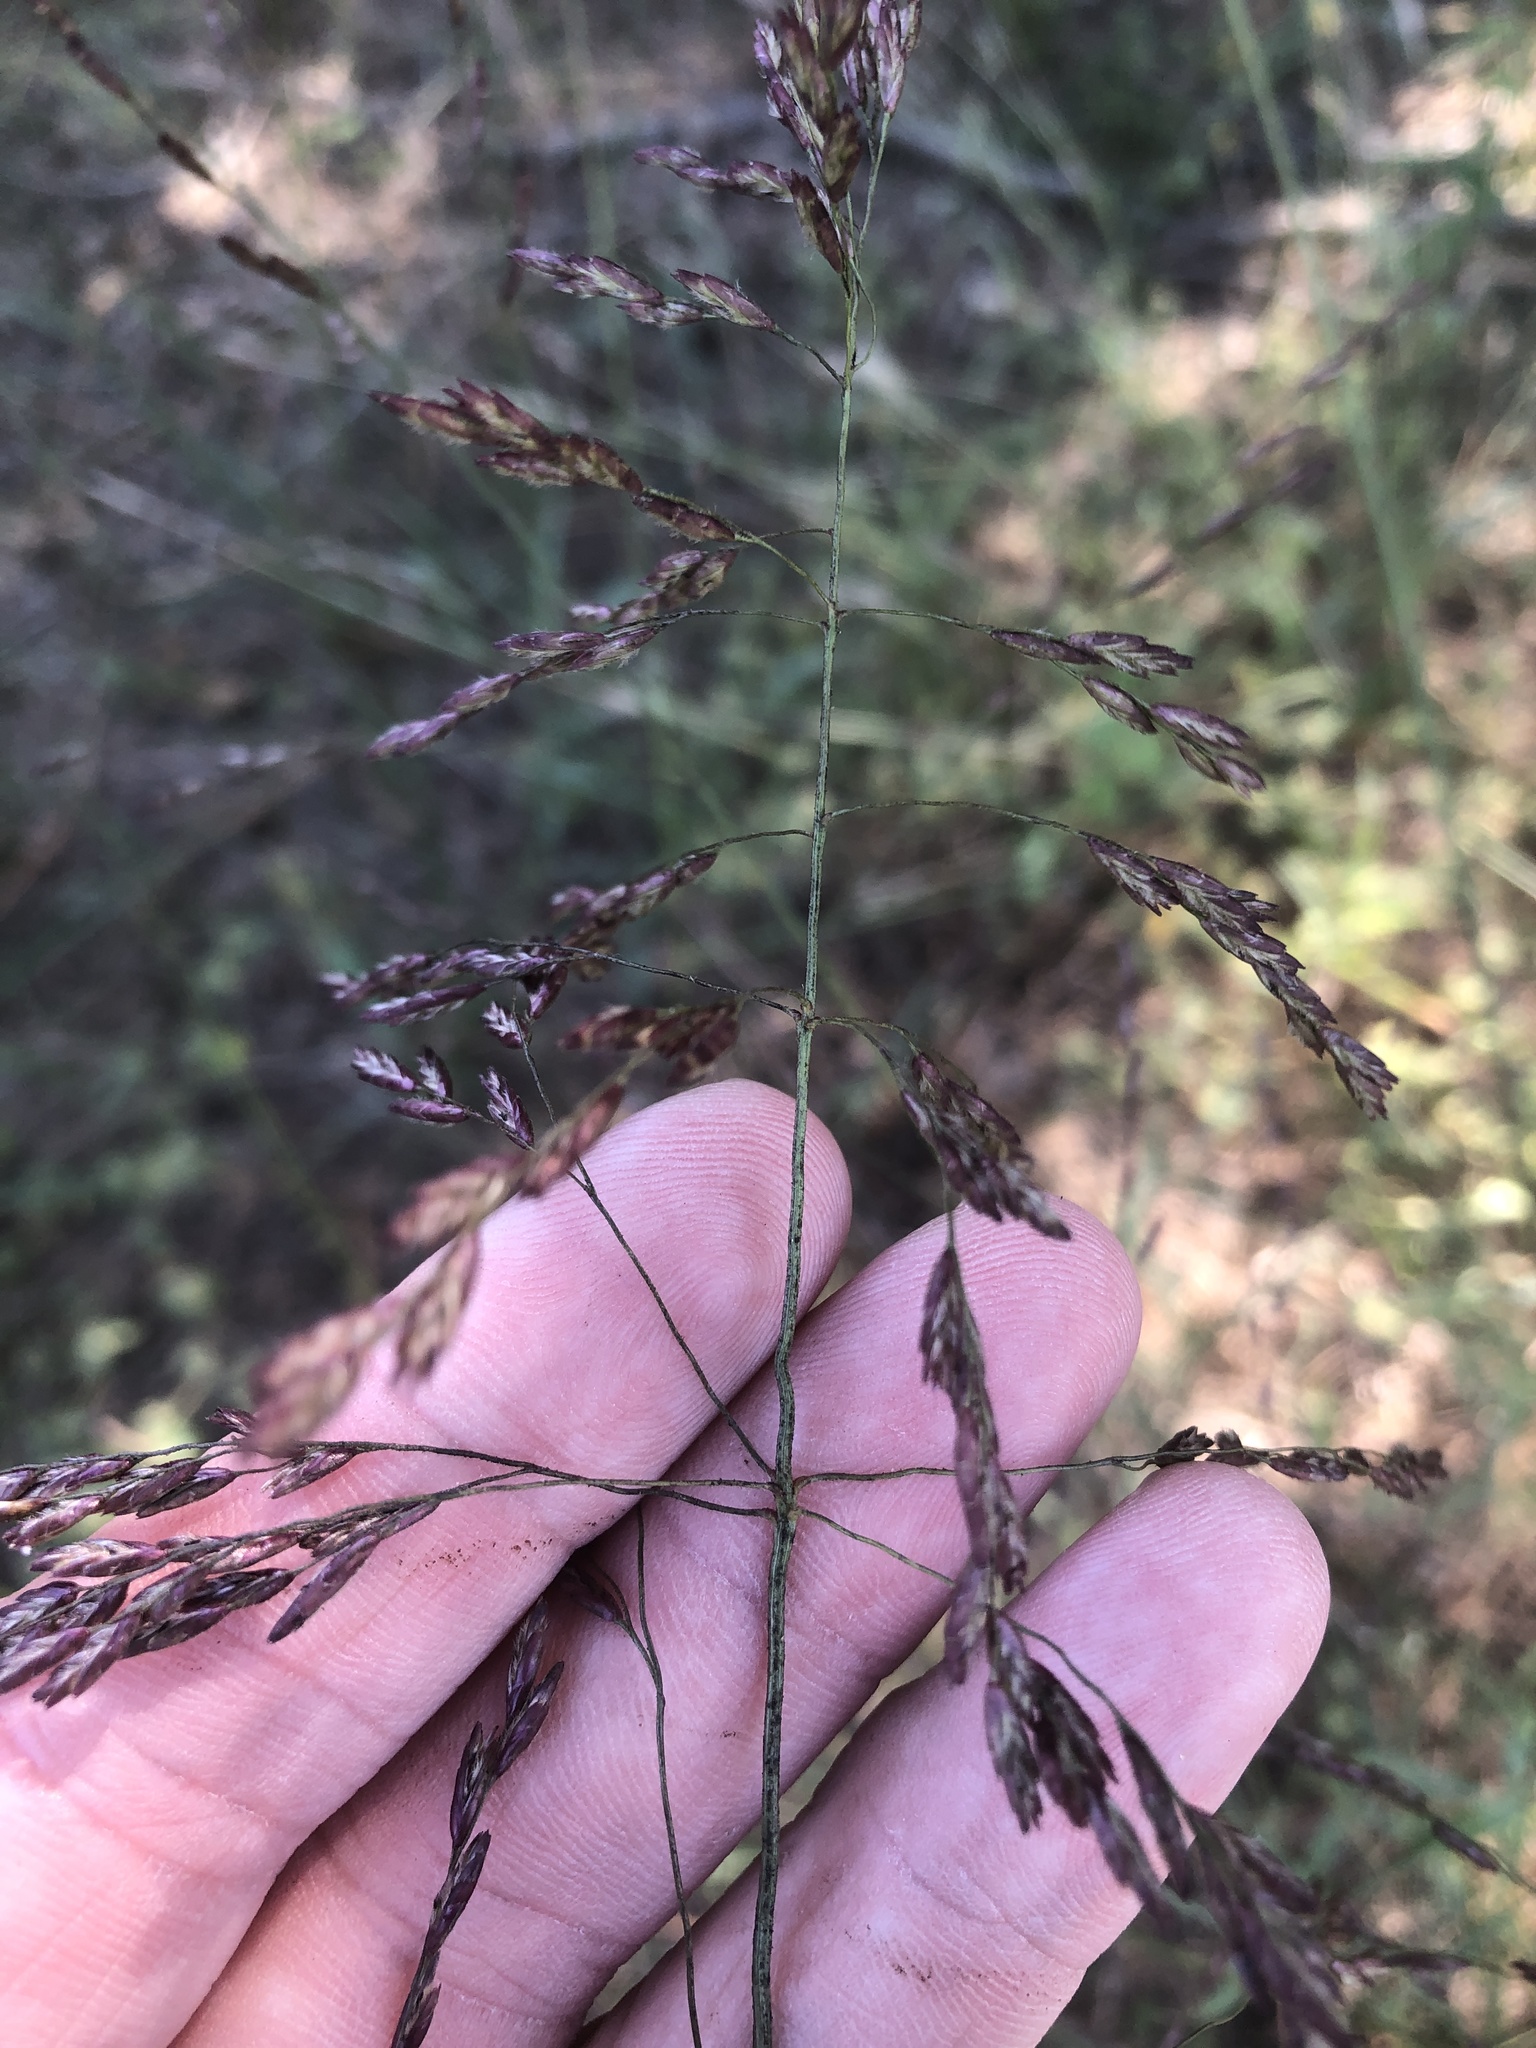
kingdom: Plantae
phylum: Tracheophyta
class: Liliopsida
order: Poales
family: Poaceae
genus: Tridens
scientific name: Tridens flavus
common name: Purpletop
